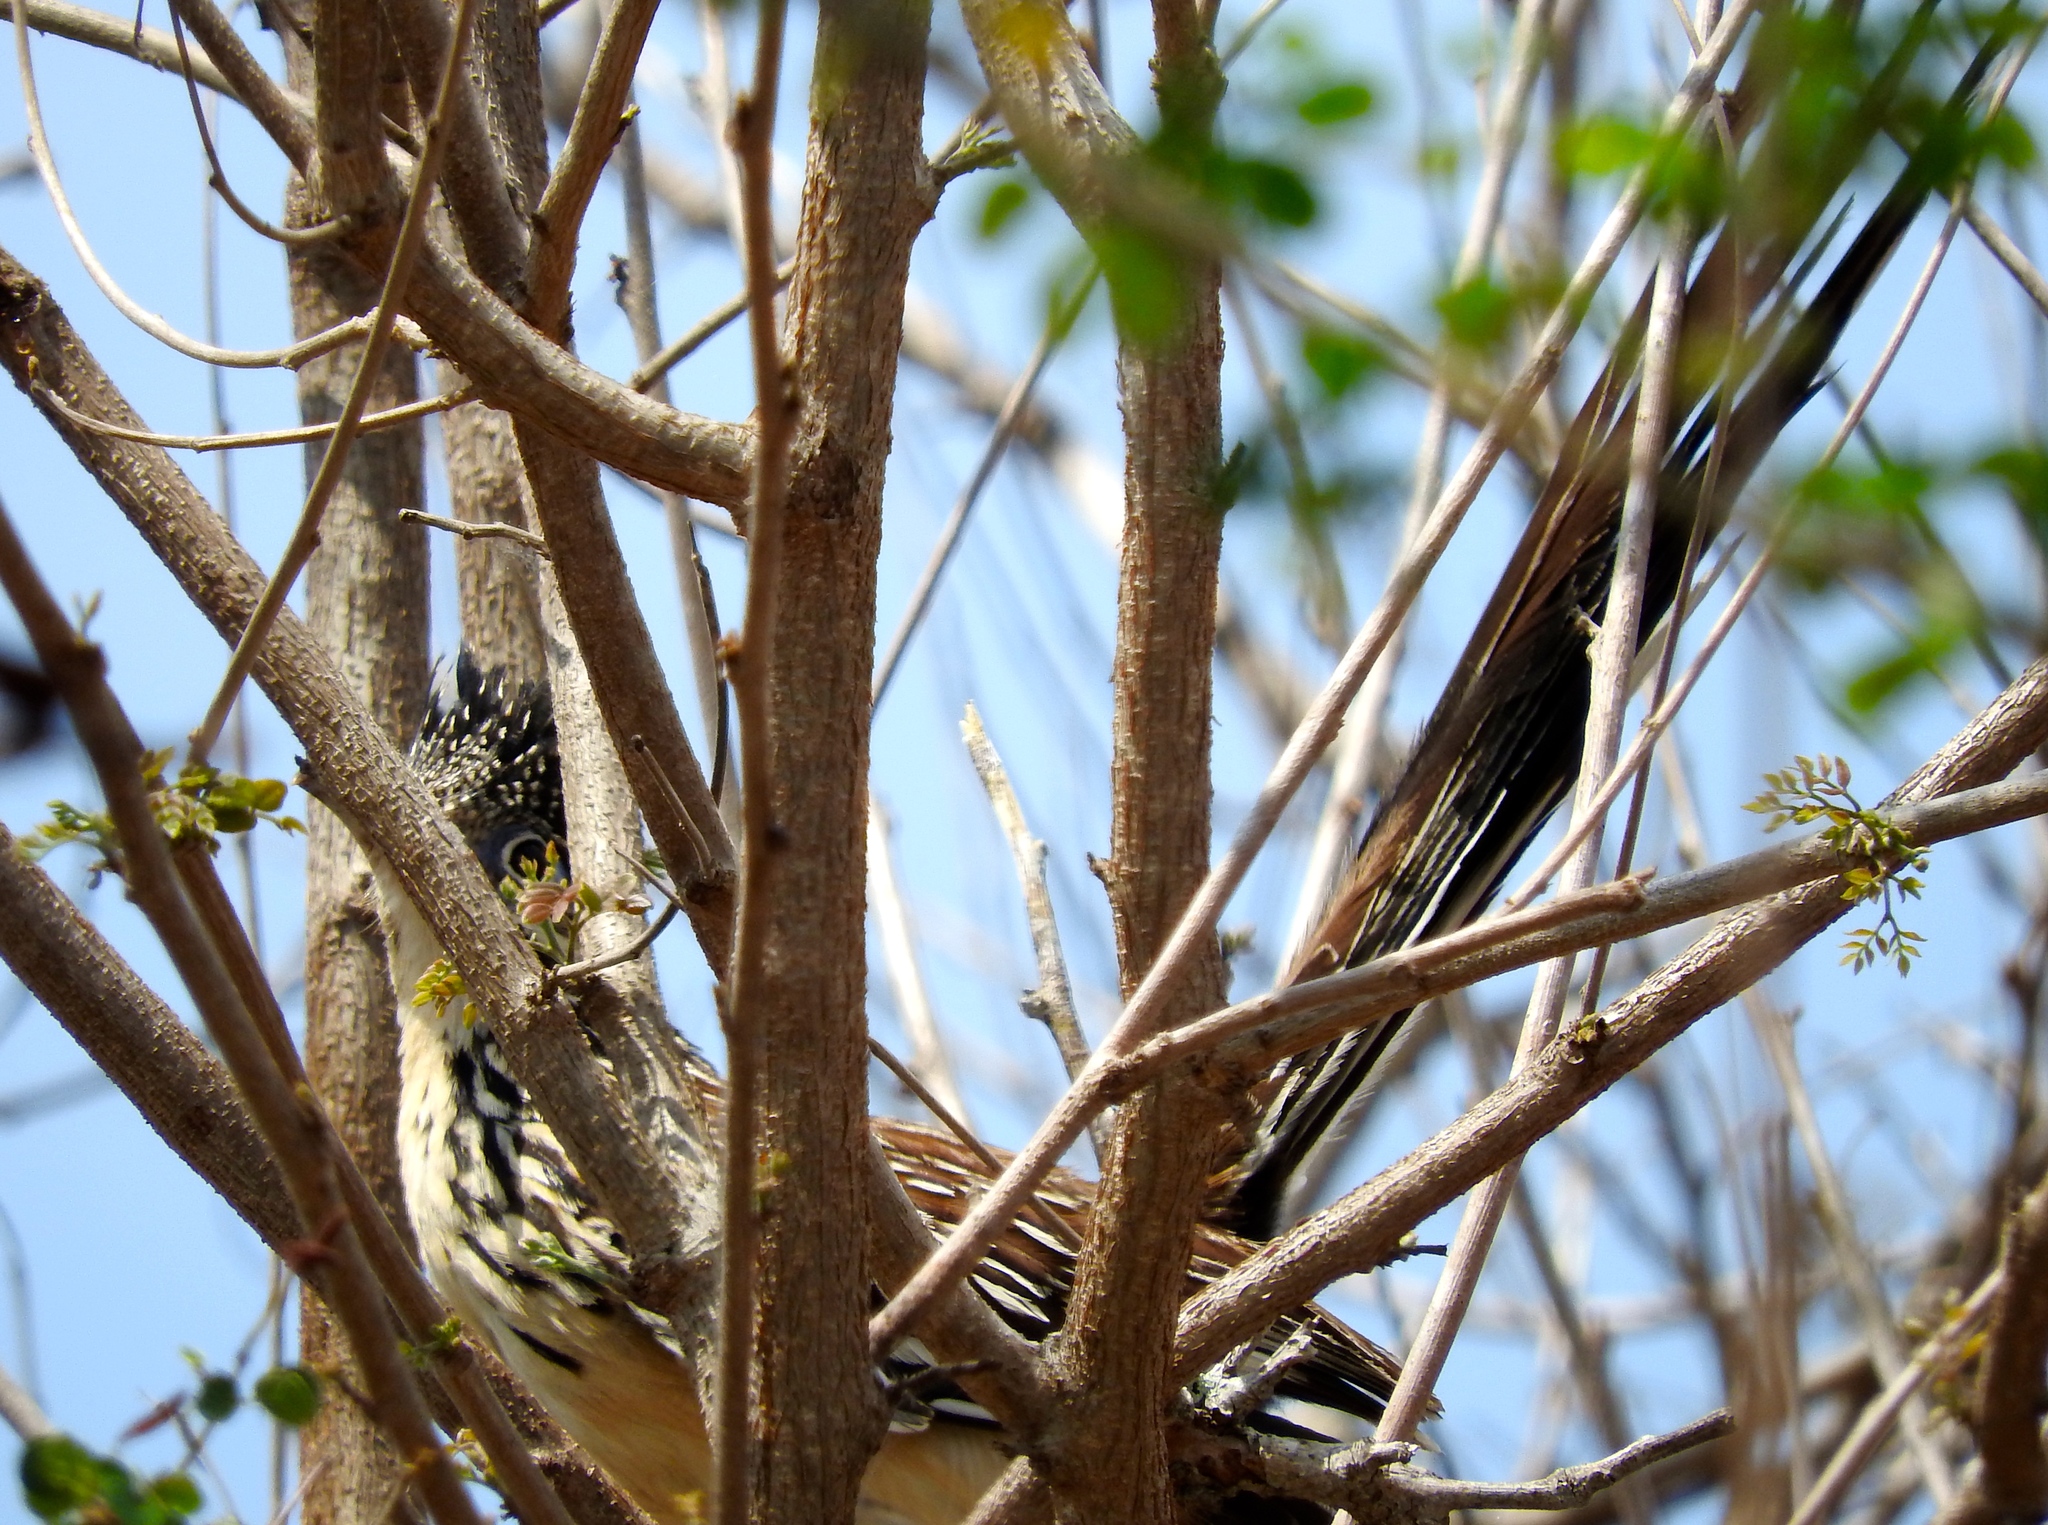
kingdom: Animalia
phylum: Chordata
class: Aves
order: Cuculiformes
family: Cuculidae
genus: Geococcyx
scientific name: Geococcyx velox
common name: Lesser roadrunner
